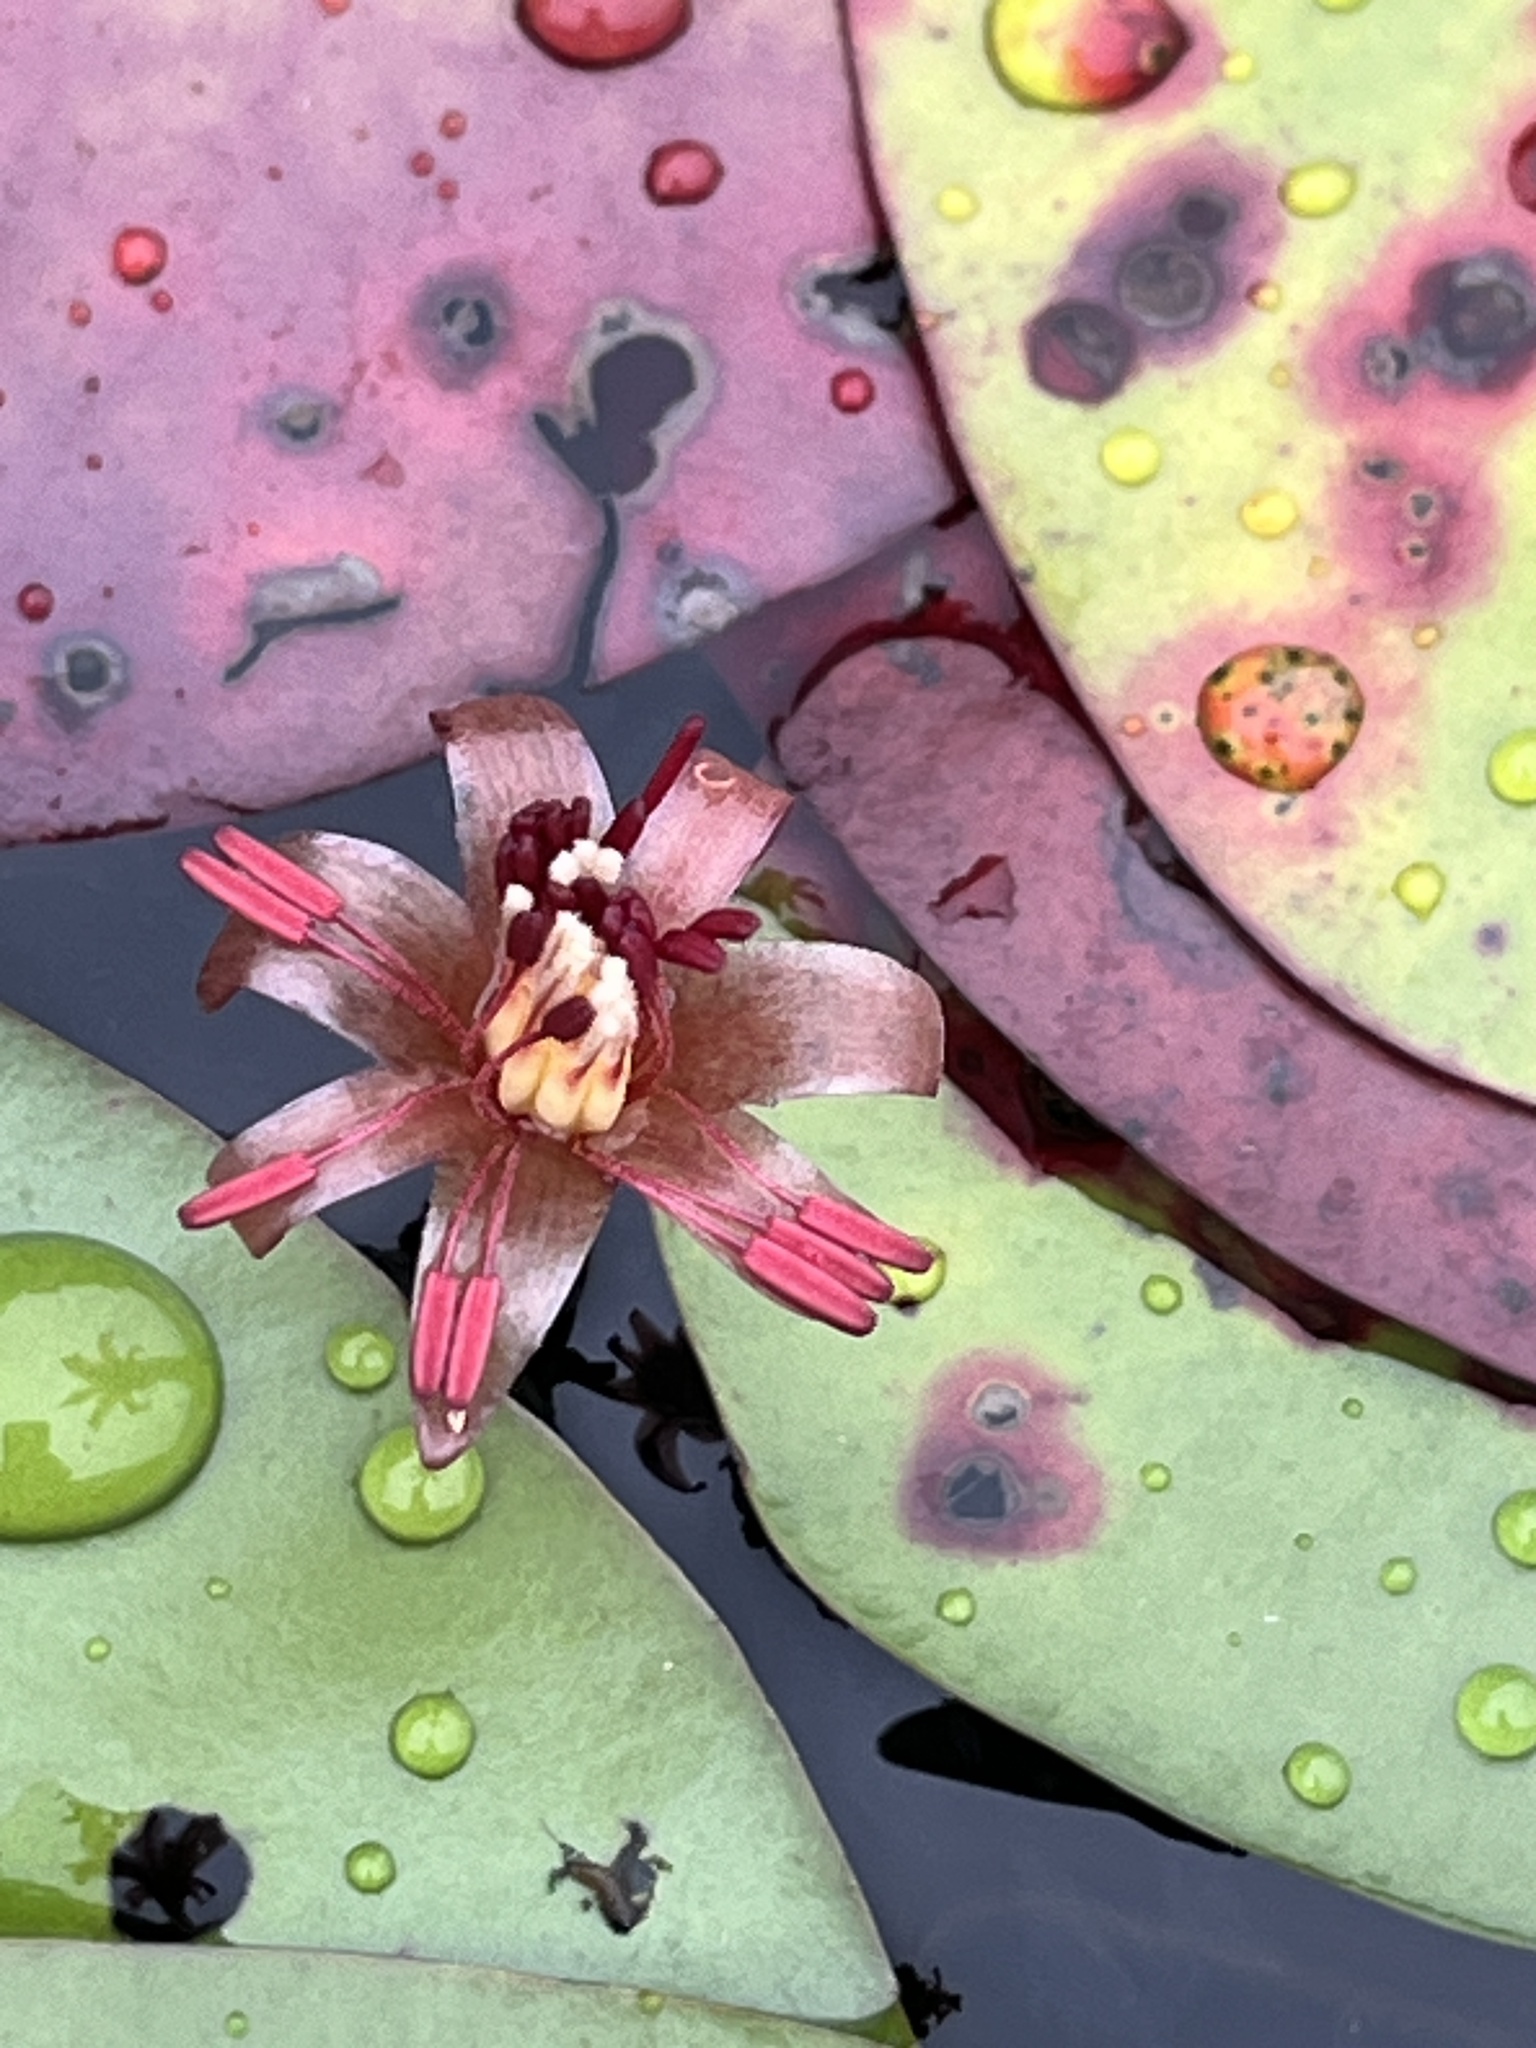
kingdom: Plantae
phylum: Tracheophyta
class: Magnoliopsida
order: Nymphaeales
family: Cabombaceae
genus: Brasenia
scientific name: Brasenia schreberi
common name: Water-shield
